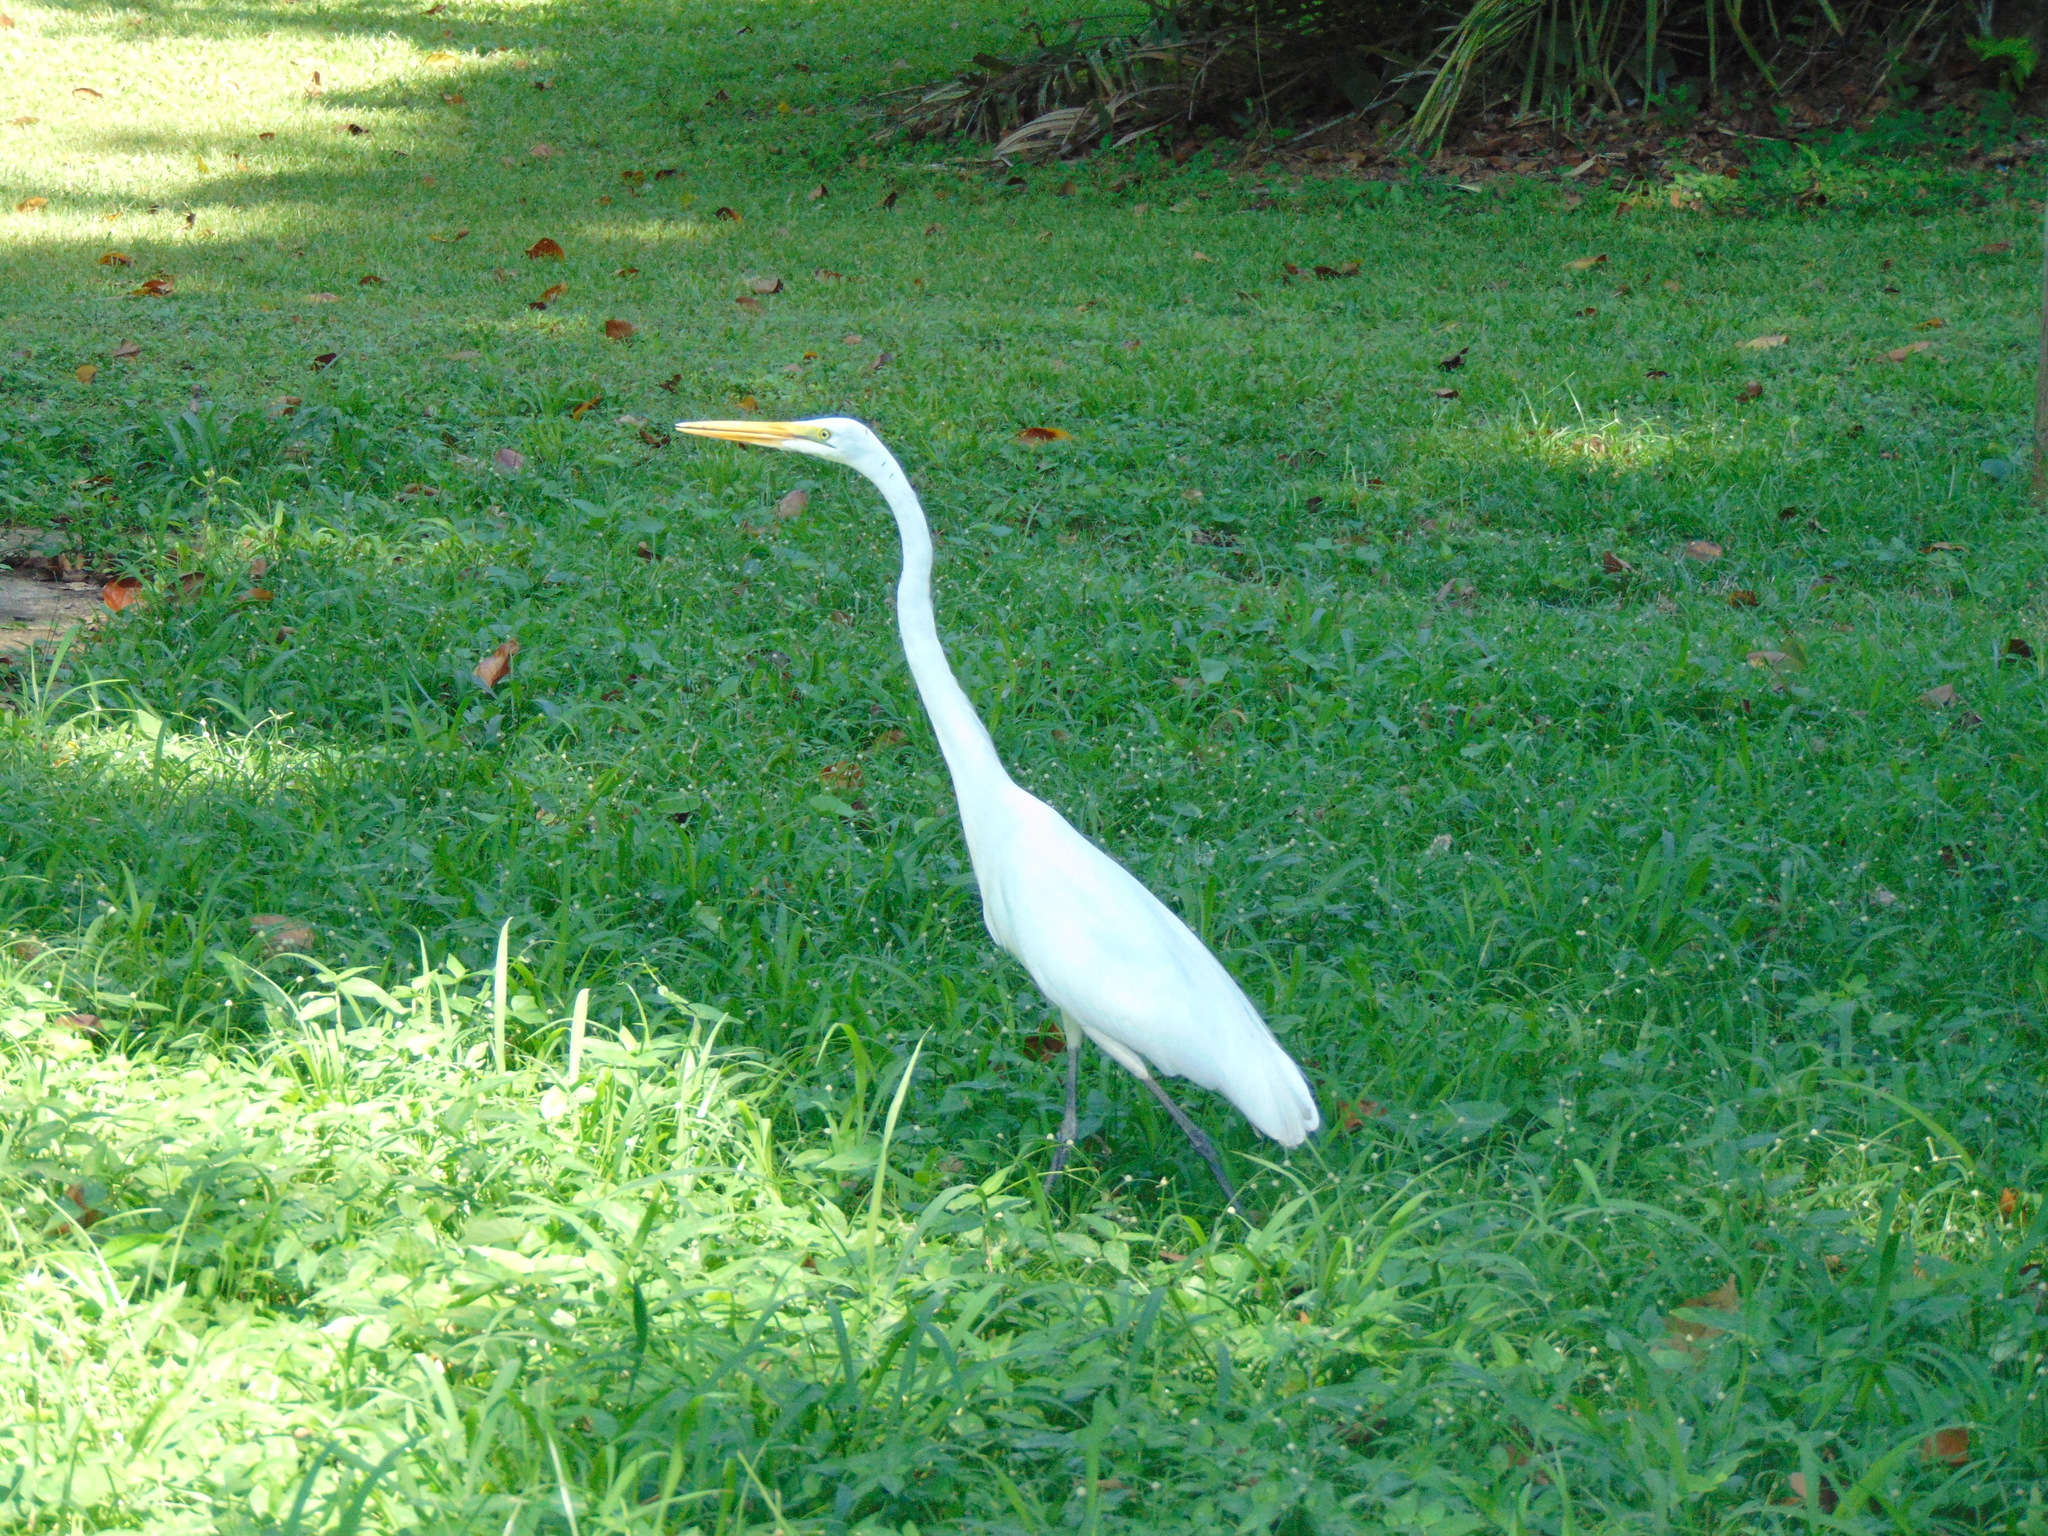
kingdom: Animalia
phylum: Chordata
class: Aves
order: Pelecaniformes
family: Ardeidae
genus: Ardea
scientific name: Ardea alba
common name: Great egret
